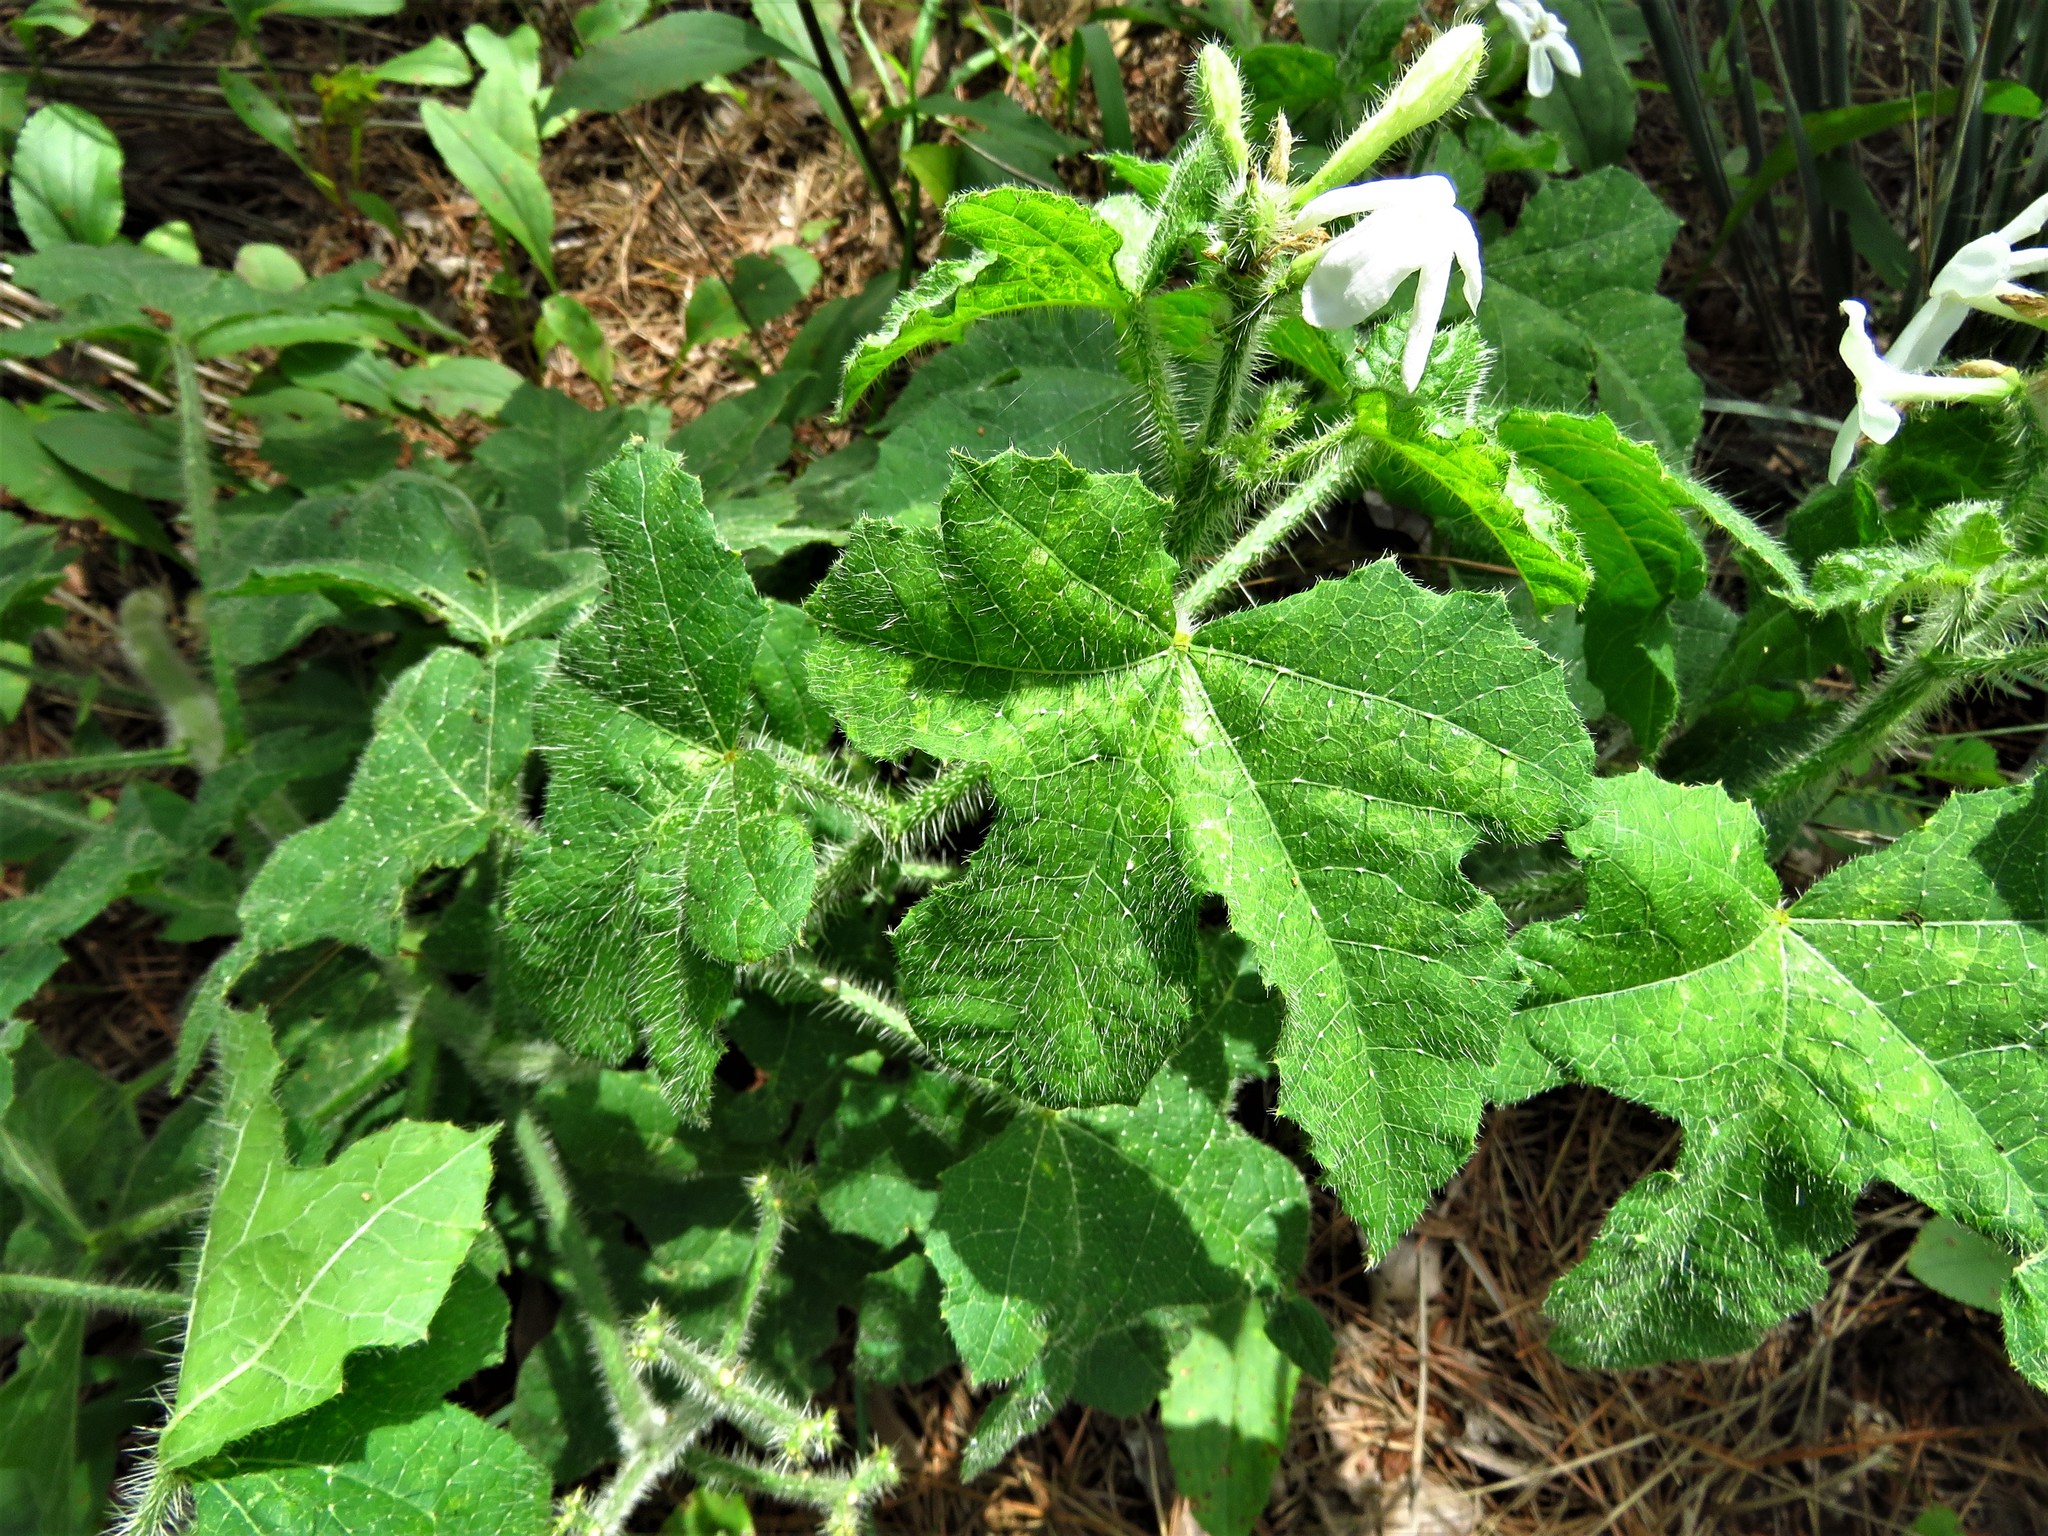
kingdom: Plantae
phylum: Tracheophyta
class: Magnoliopsida
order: Malpighiales
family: Euphorbiaceae
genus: Cnidoscolus
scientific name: Cnidoscolus texanus
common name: Texas bull-nettle
